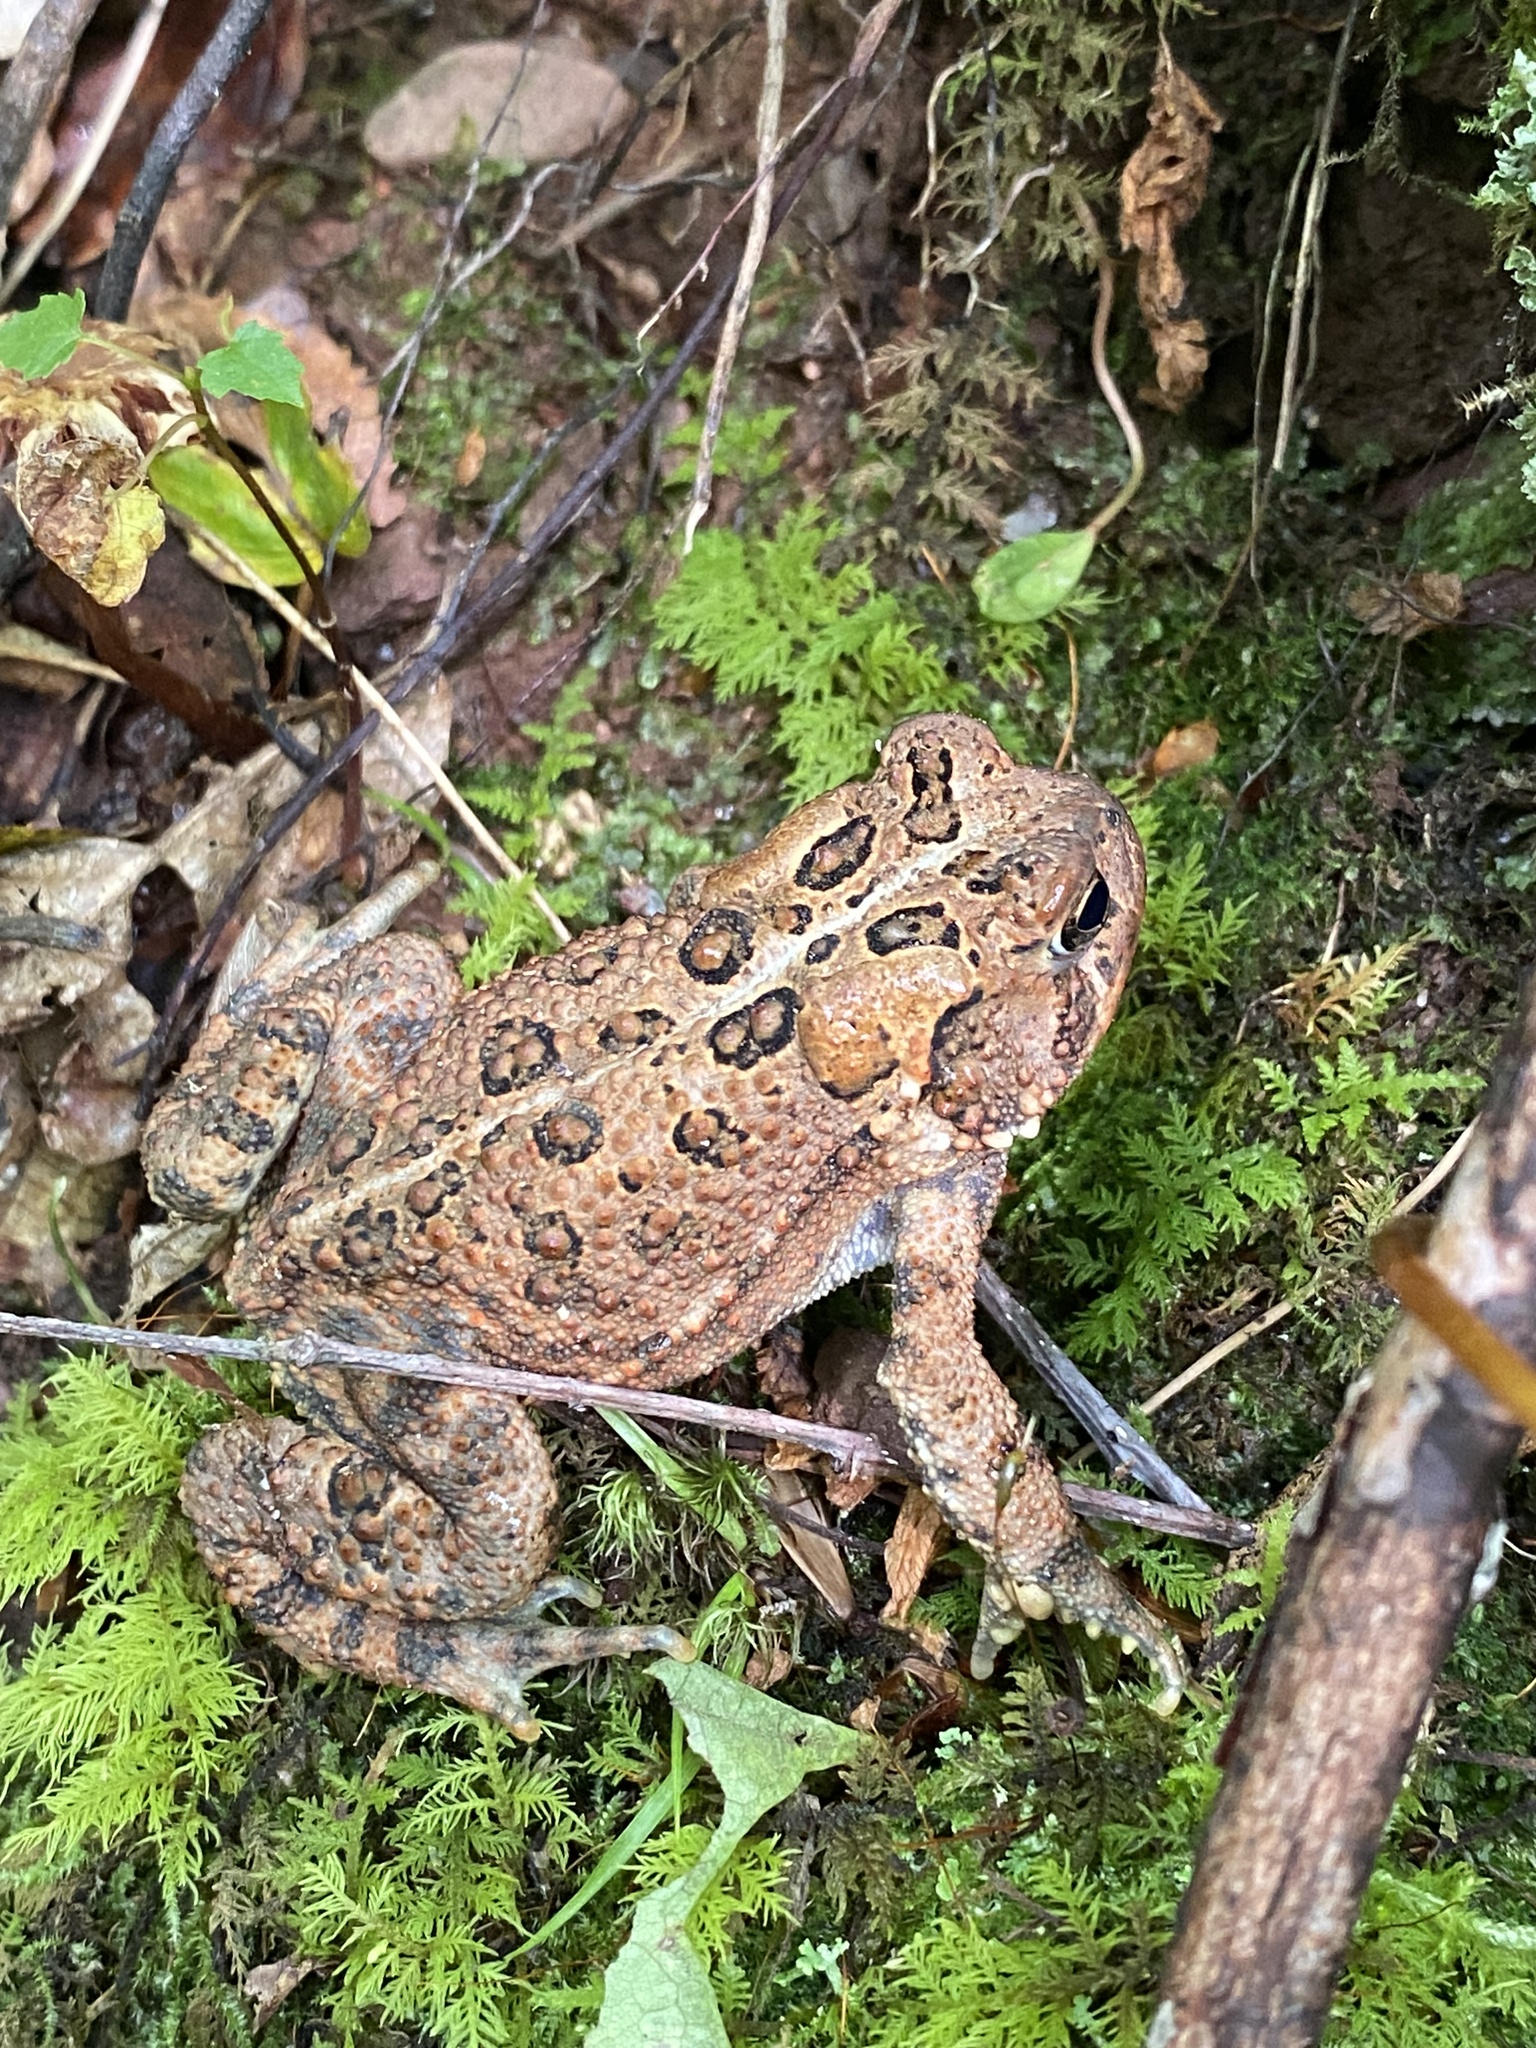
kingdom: Animalia
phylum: Chordata
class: Amphibia
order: Anura
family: Bufonidae
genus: Anaxyrus
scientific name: Anaxyrus americanus
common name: American toad
